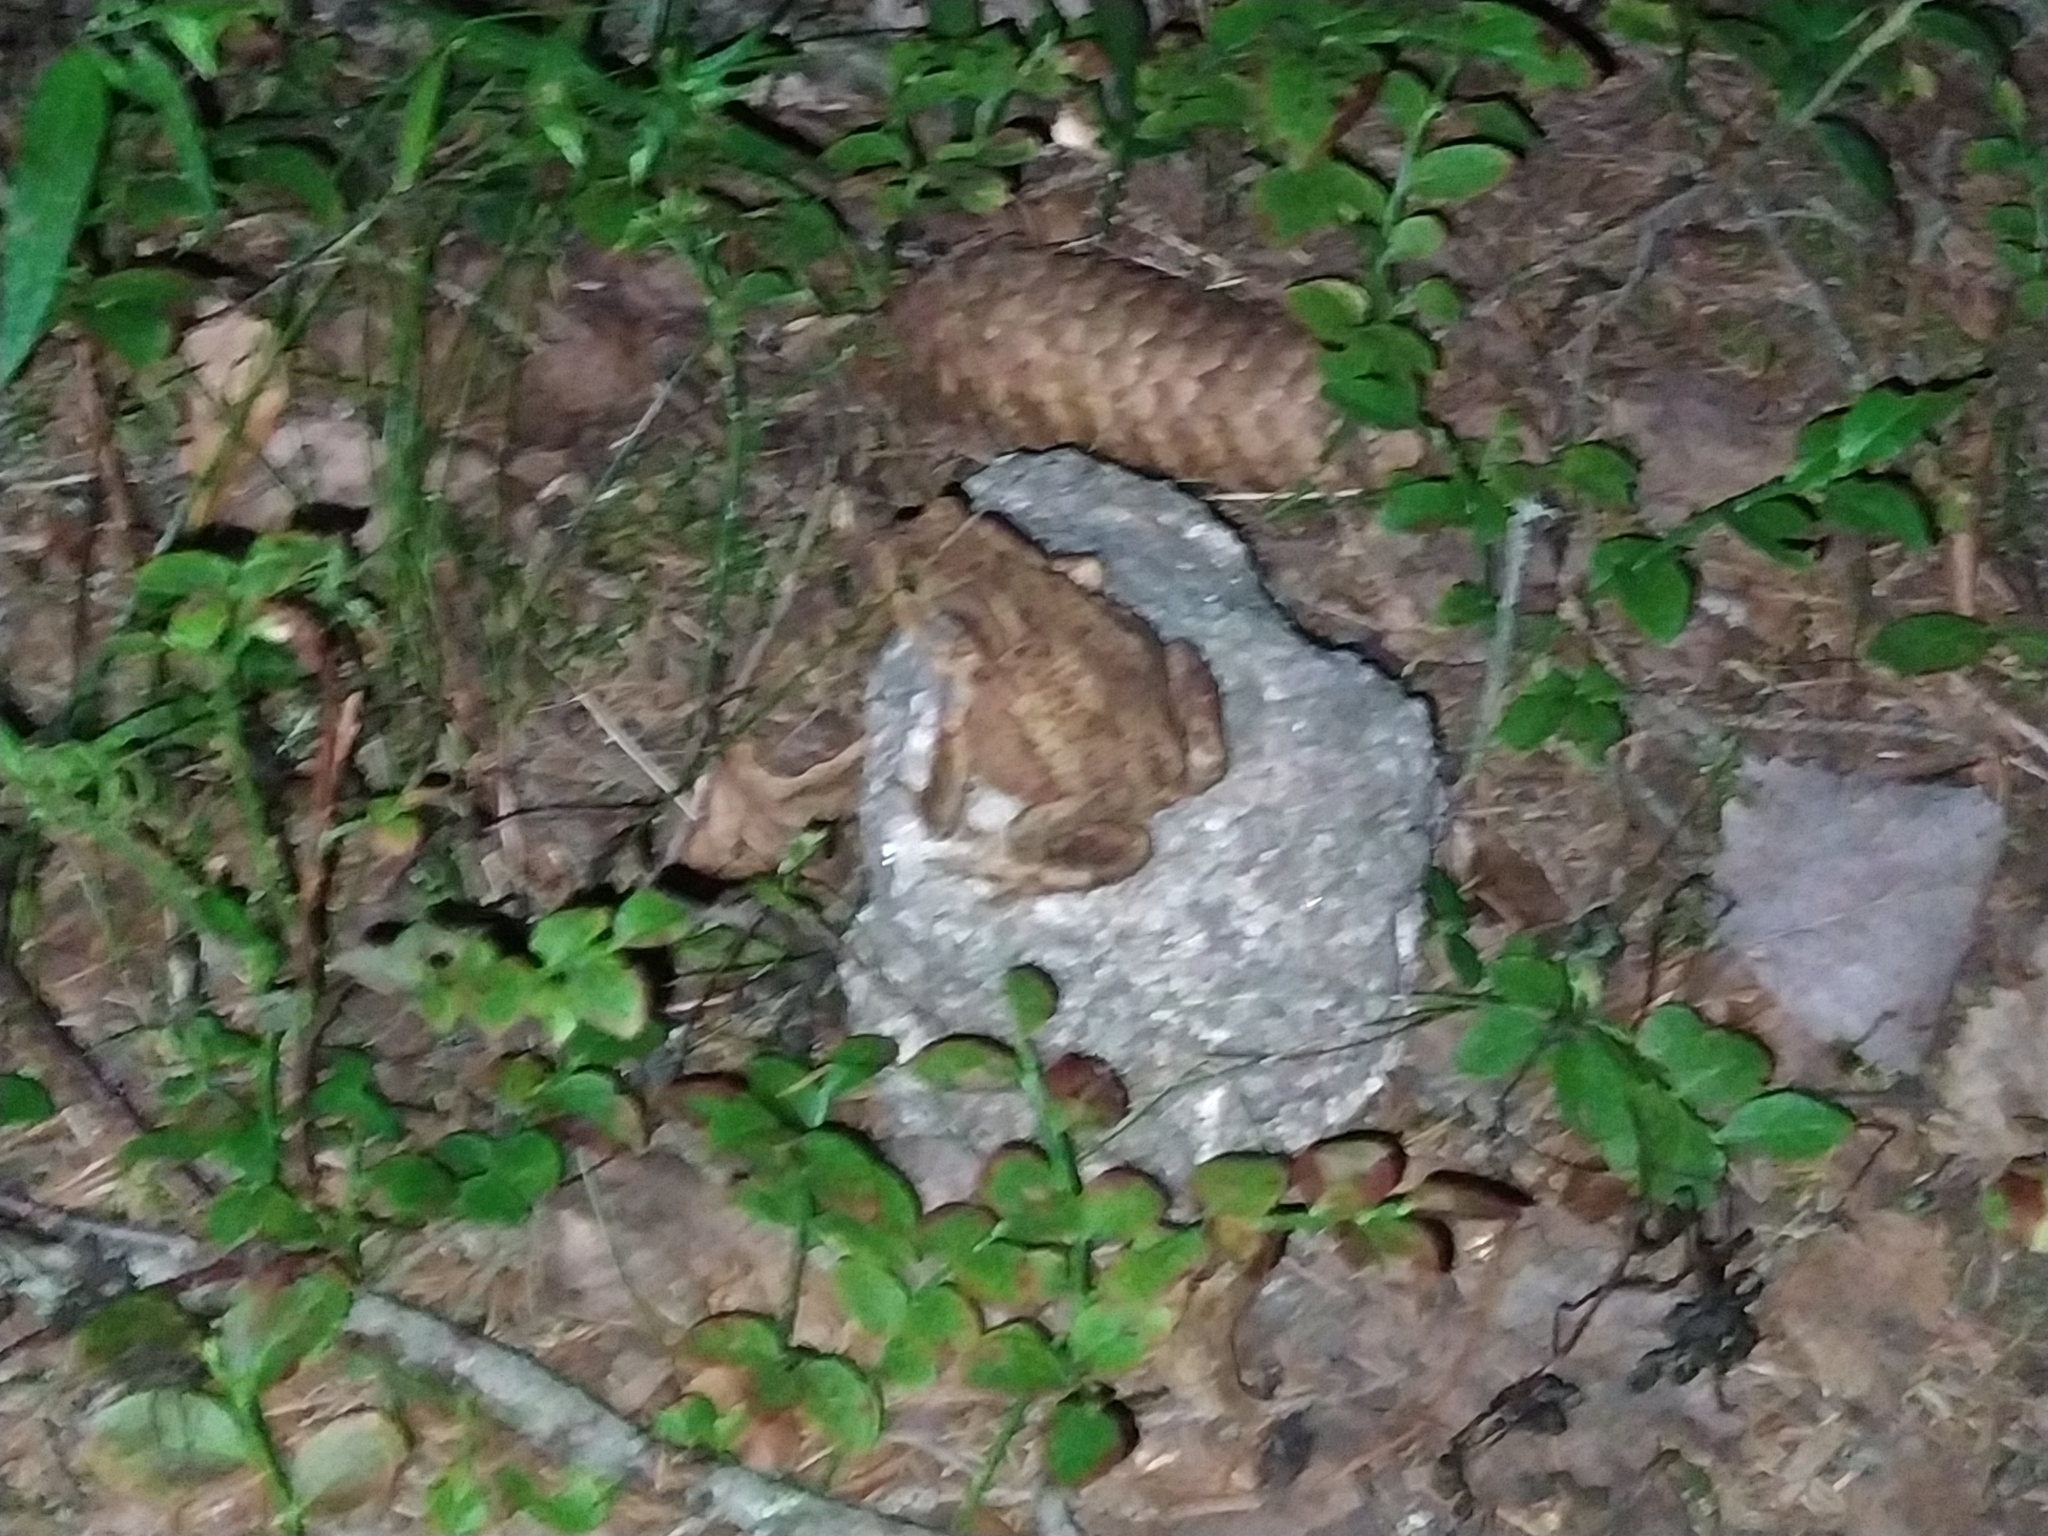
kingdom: Animalia
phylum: Chordata
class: Amphibia
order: Anura
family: Bufonidae
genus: Bufo
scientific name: Bufo bufo
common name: Common toad
